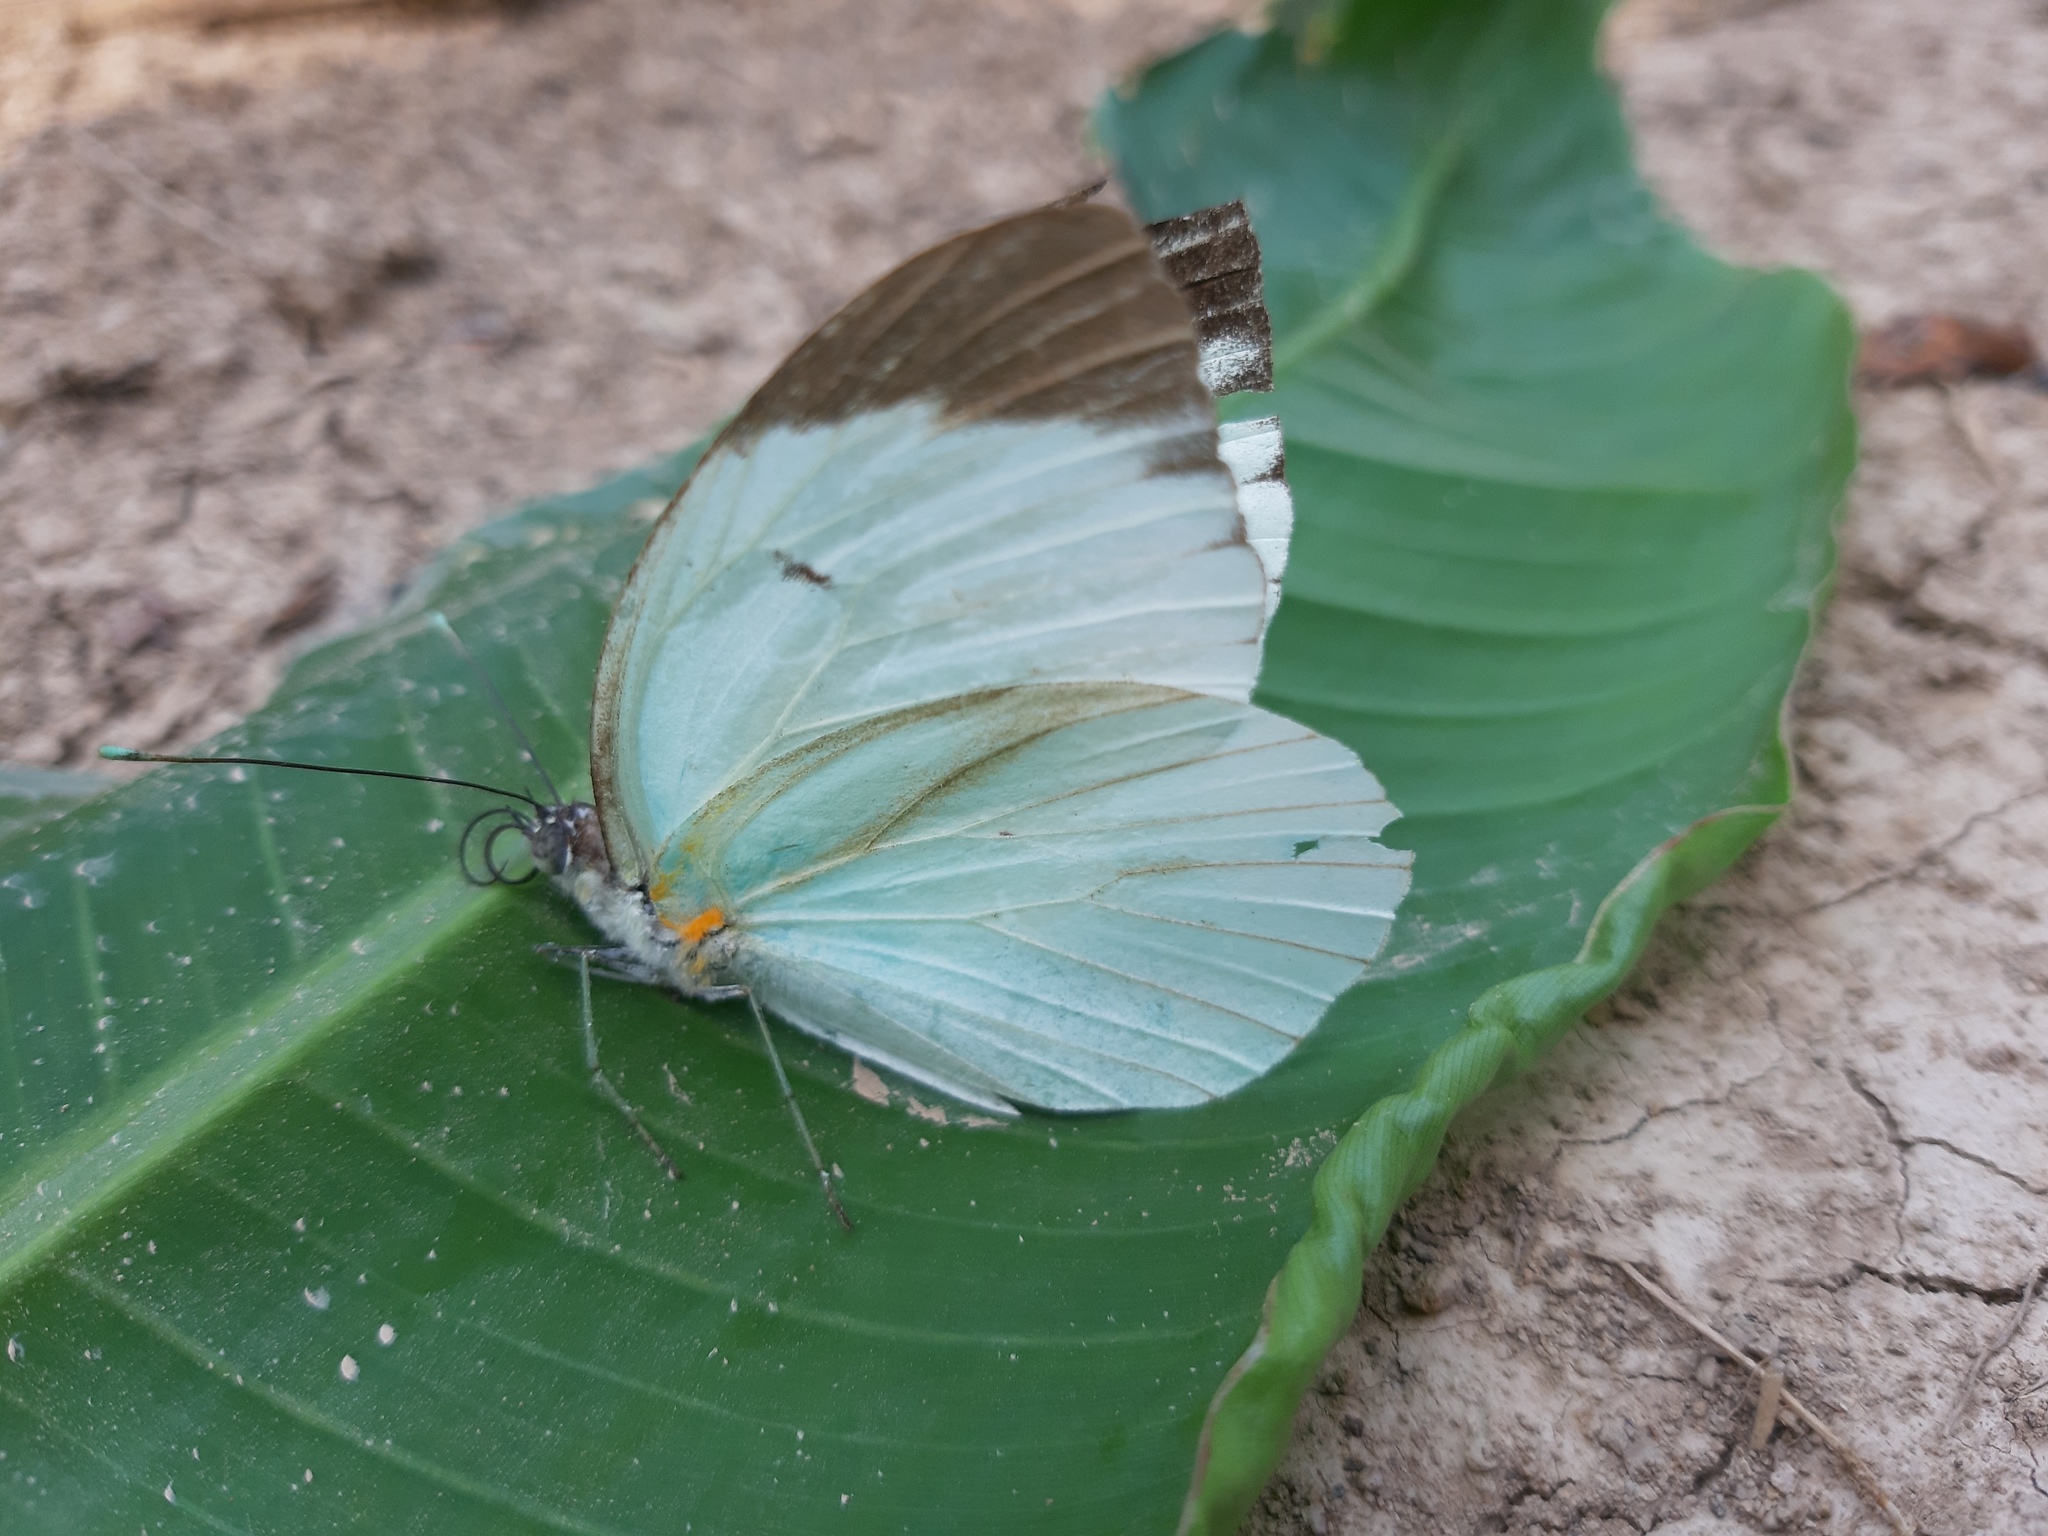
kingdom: Animalia
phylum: Arthropoda
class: Insecta
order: Lepidoptera
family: Pieridae
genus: Ganyra
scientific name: Ganyra phaloe
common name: Giant white
